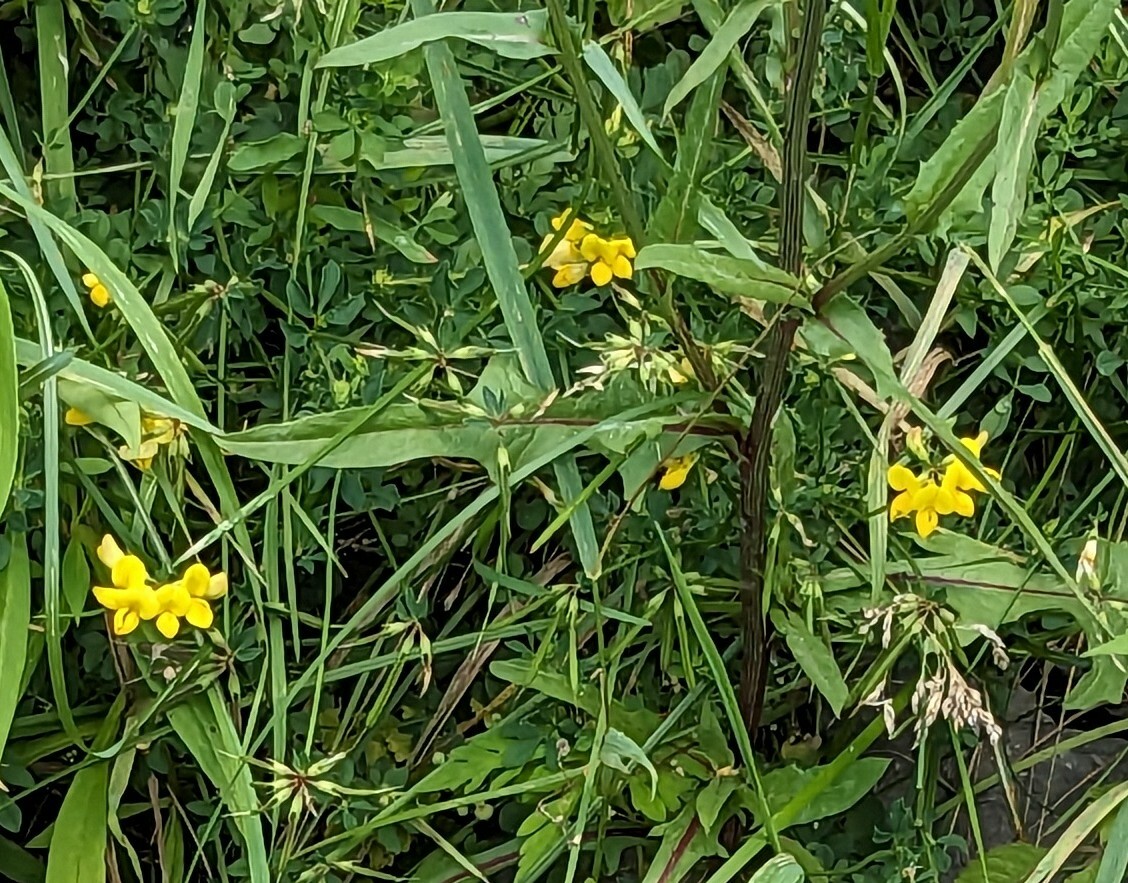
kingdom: Plantae
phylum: Tracheophyta
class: Magnoliopsida
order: Fabales
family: Fabaceae
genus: Lotus
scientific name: Lotus corniculatus
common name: Common bird's-foot-trefoil
